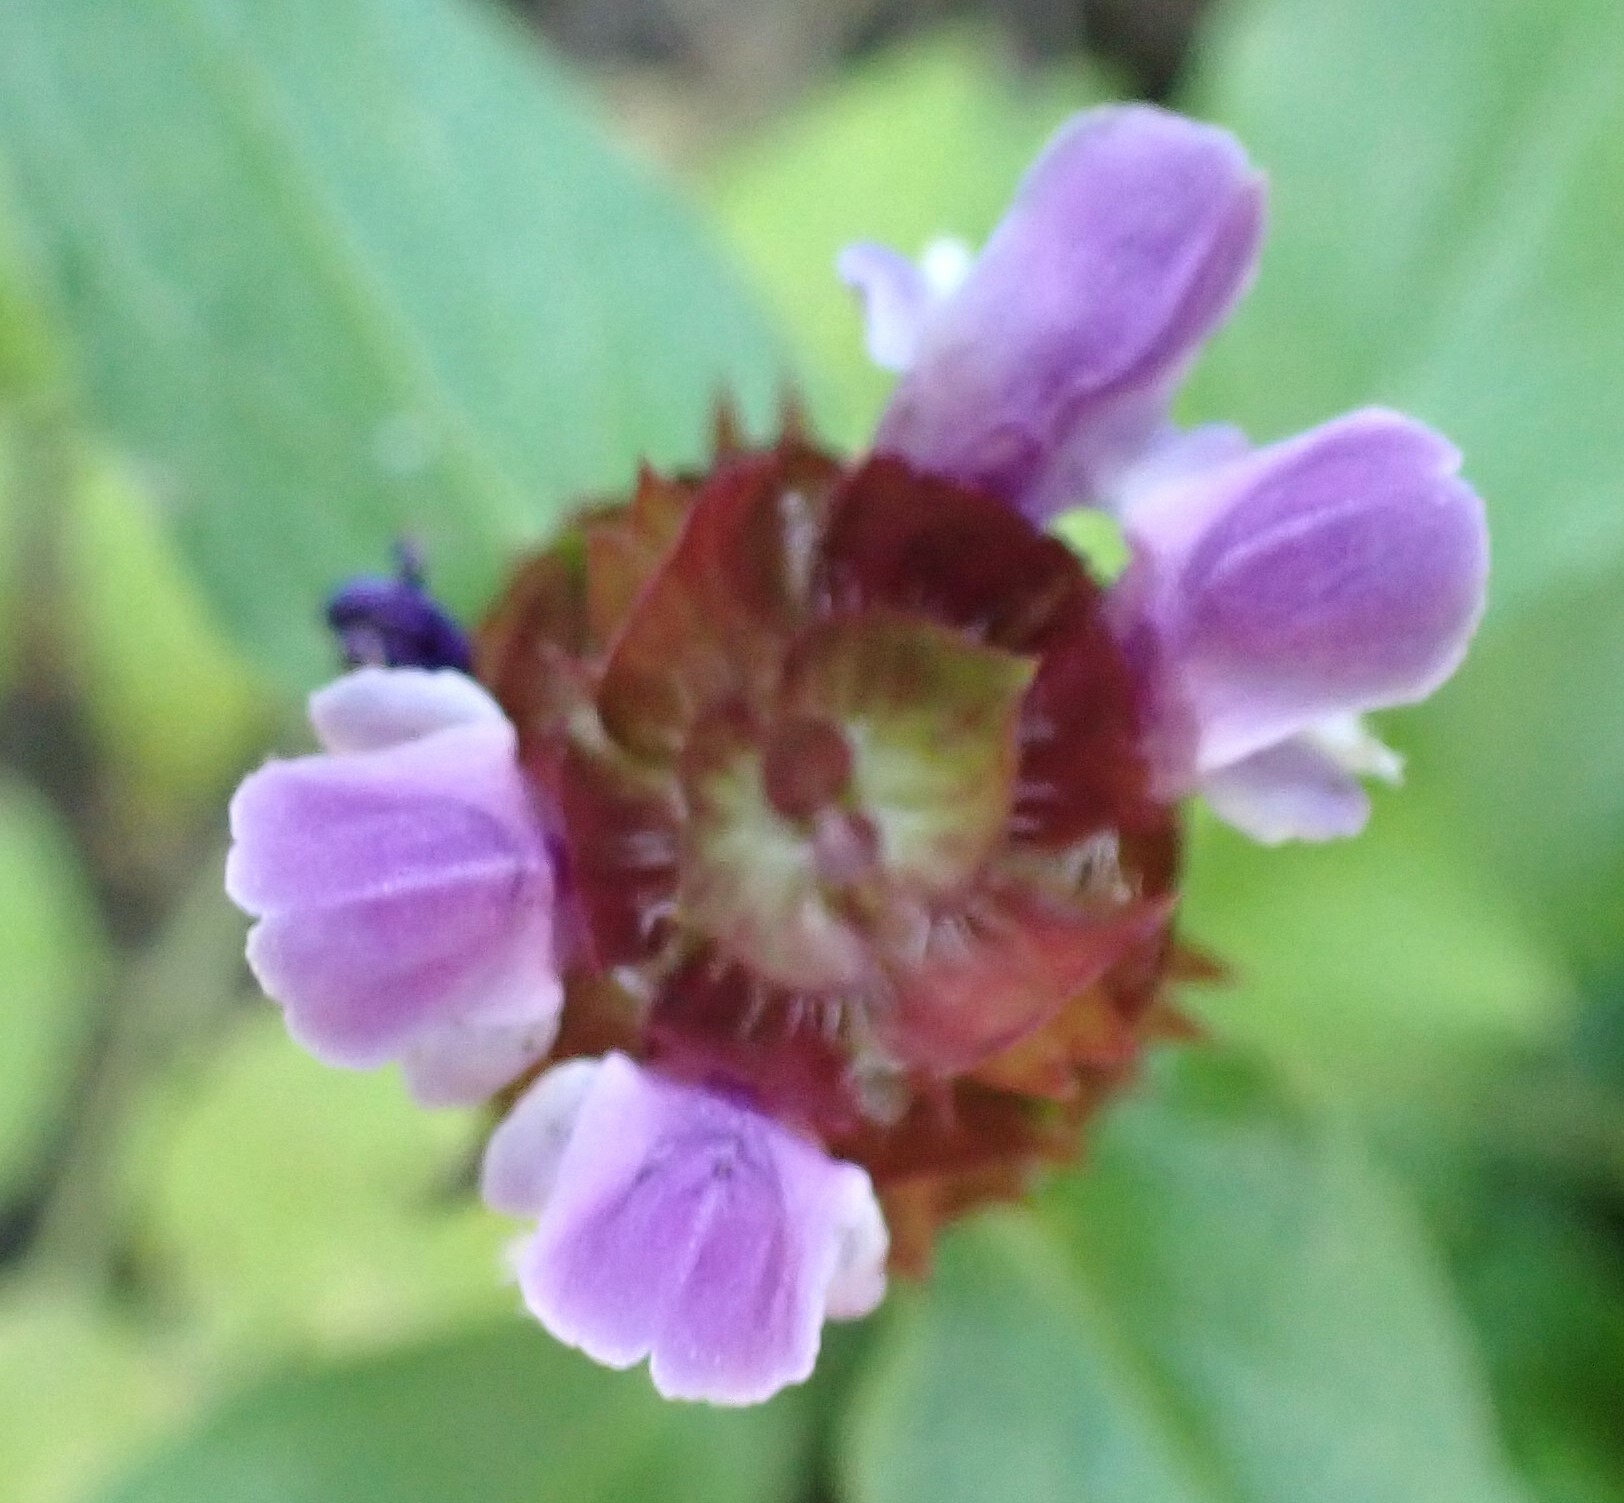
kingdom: Plantae
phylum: Tracheophyta
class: Magnoliopsida
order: Lamiales
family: Lamiaceae
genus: Prunella
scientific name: Prunella vulgaris
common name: Heal-all
